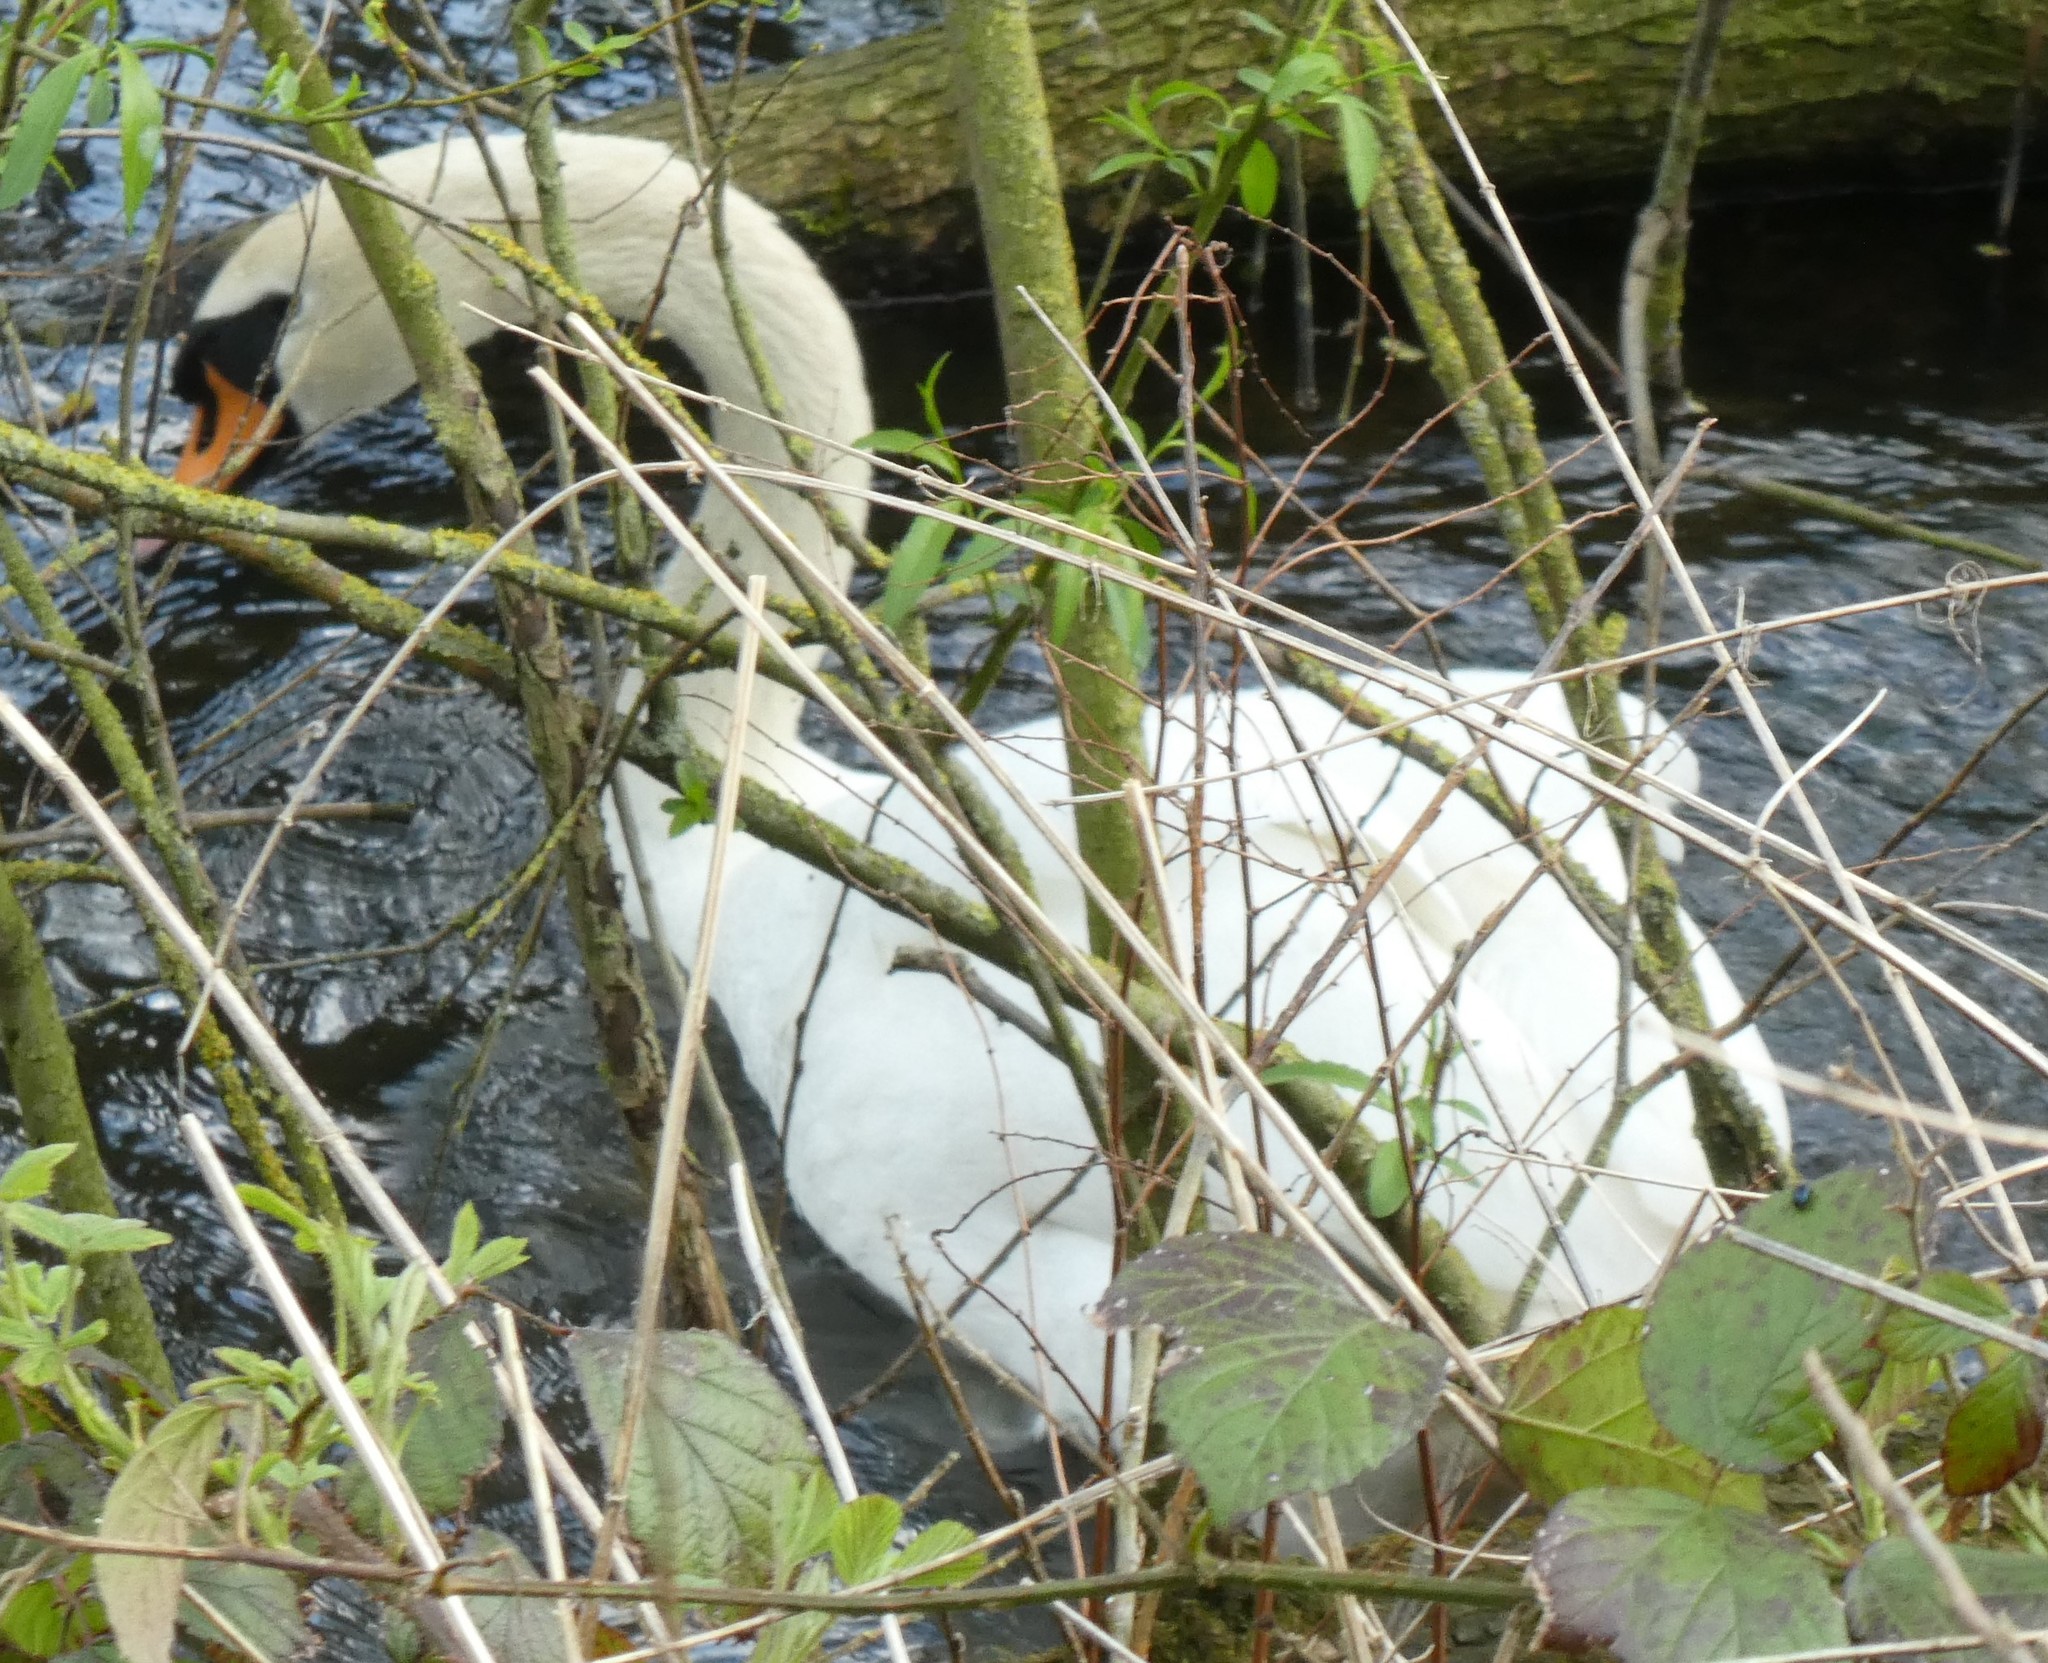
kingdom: Animalia
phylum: Chordata
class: Aves
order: Anseriformes
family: Anatidae
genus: Cygnus
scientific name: Cygnus olor
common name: Mute swan
